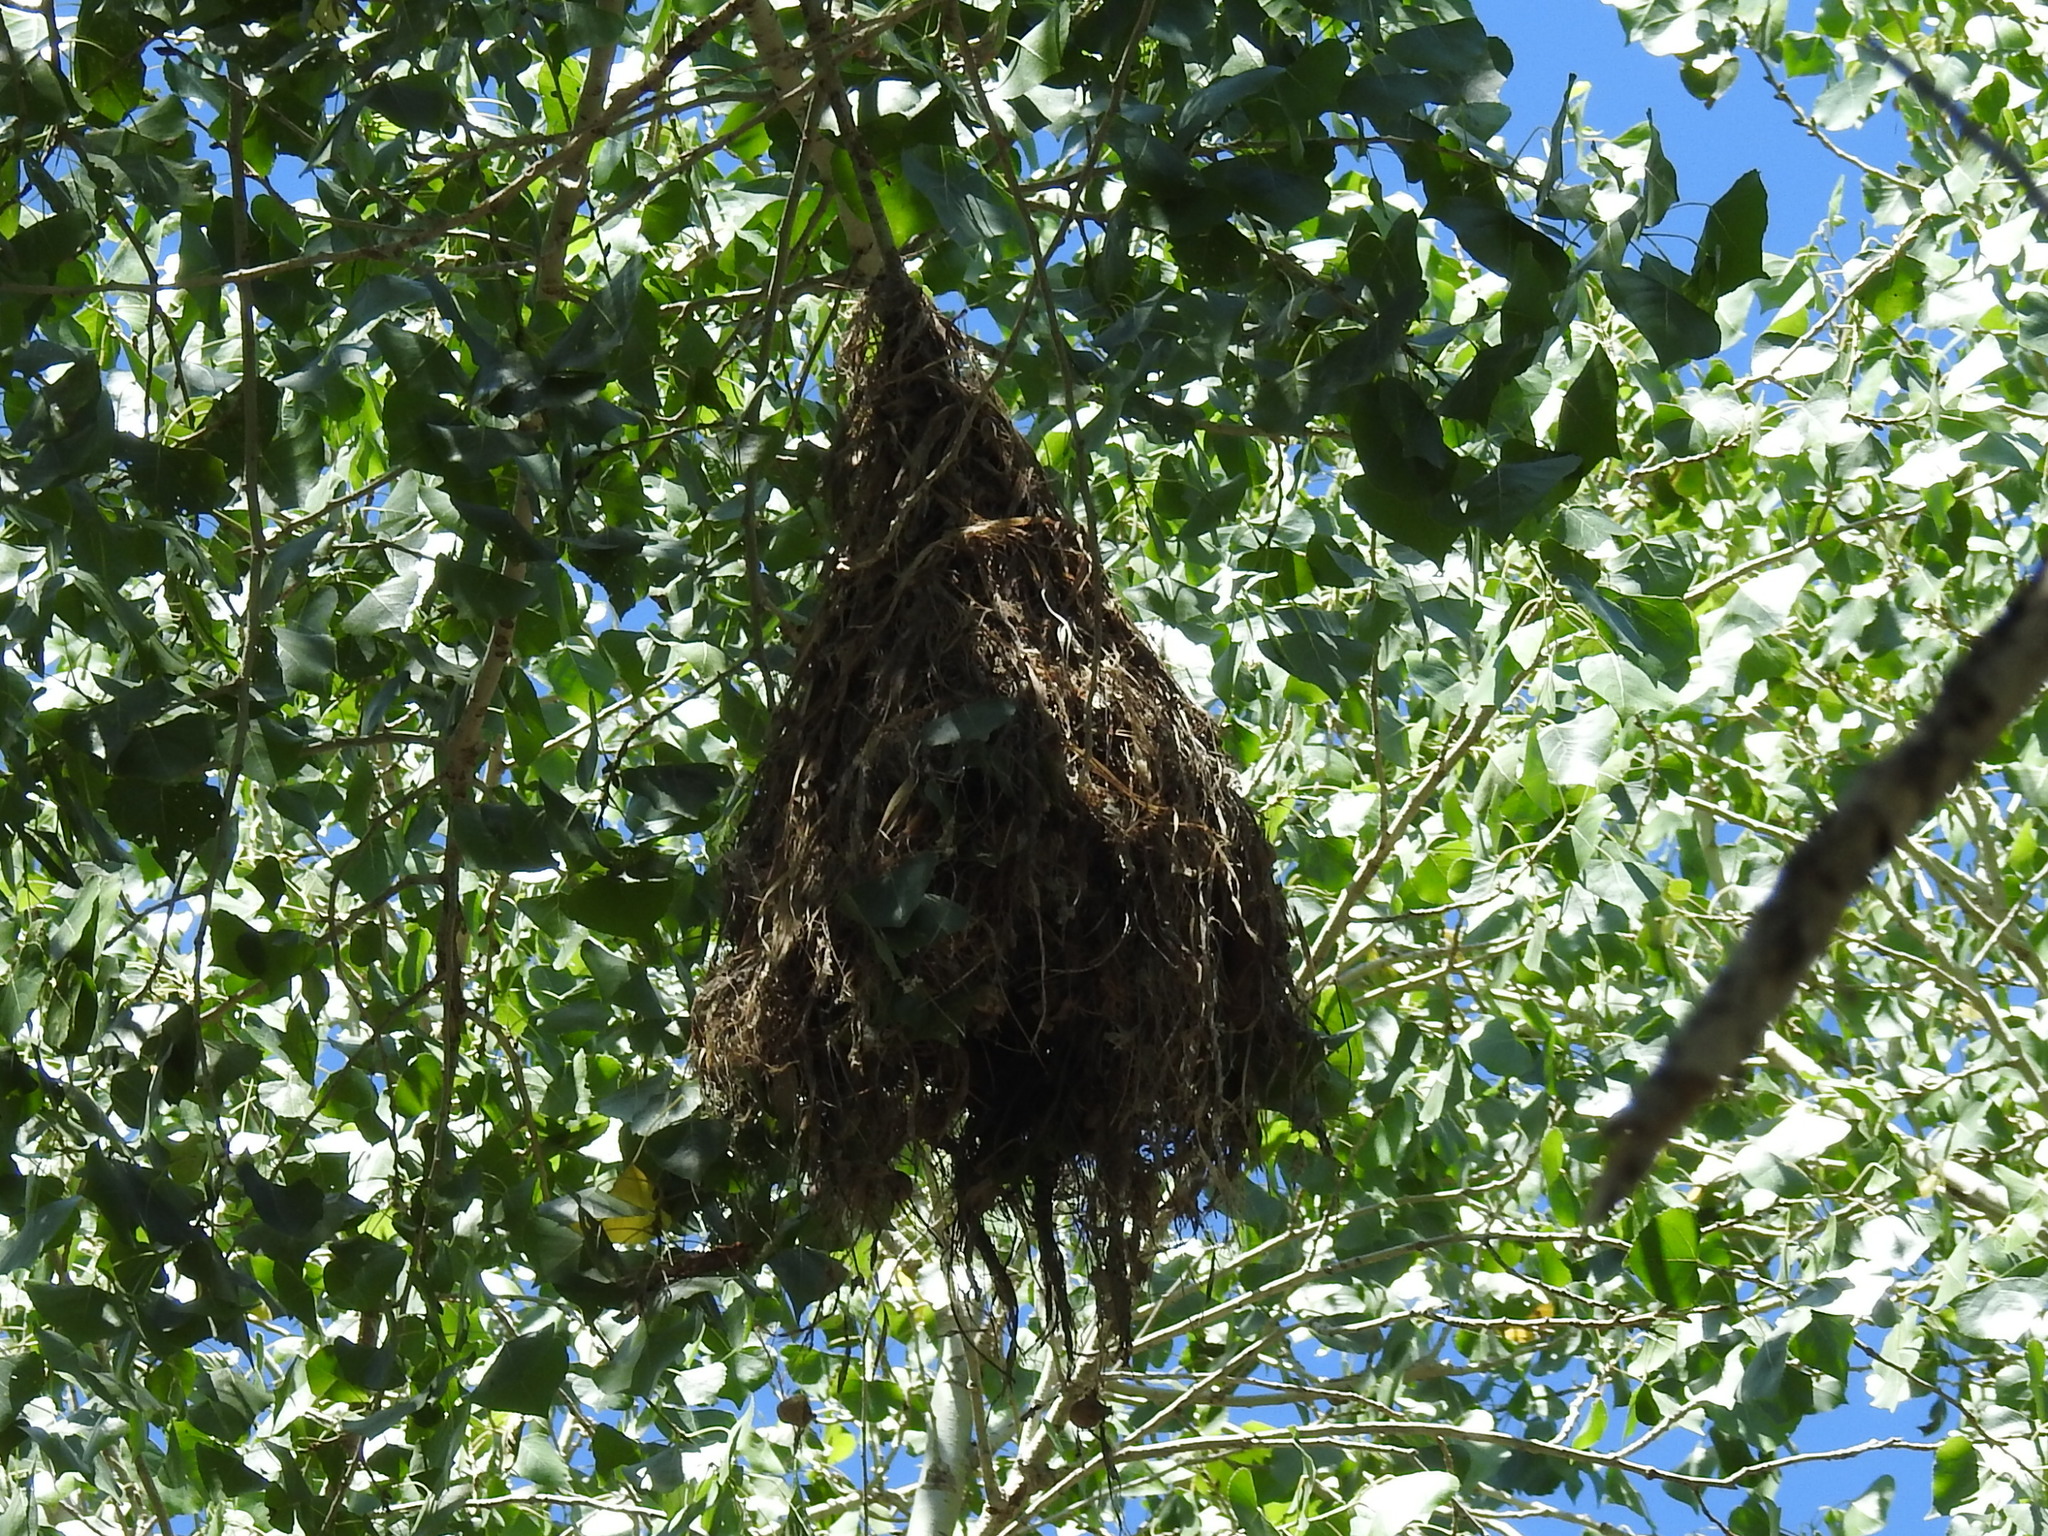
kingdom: Animalia
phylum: Chordata
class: Aves
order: Passeriformes
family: Cotingidae
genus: Pachyramphus
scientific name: Pachyramphus aglaiae
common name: Rose-throated becard
